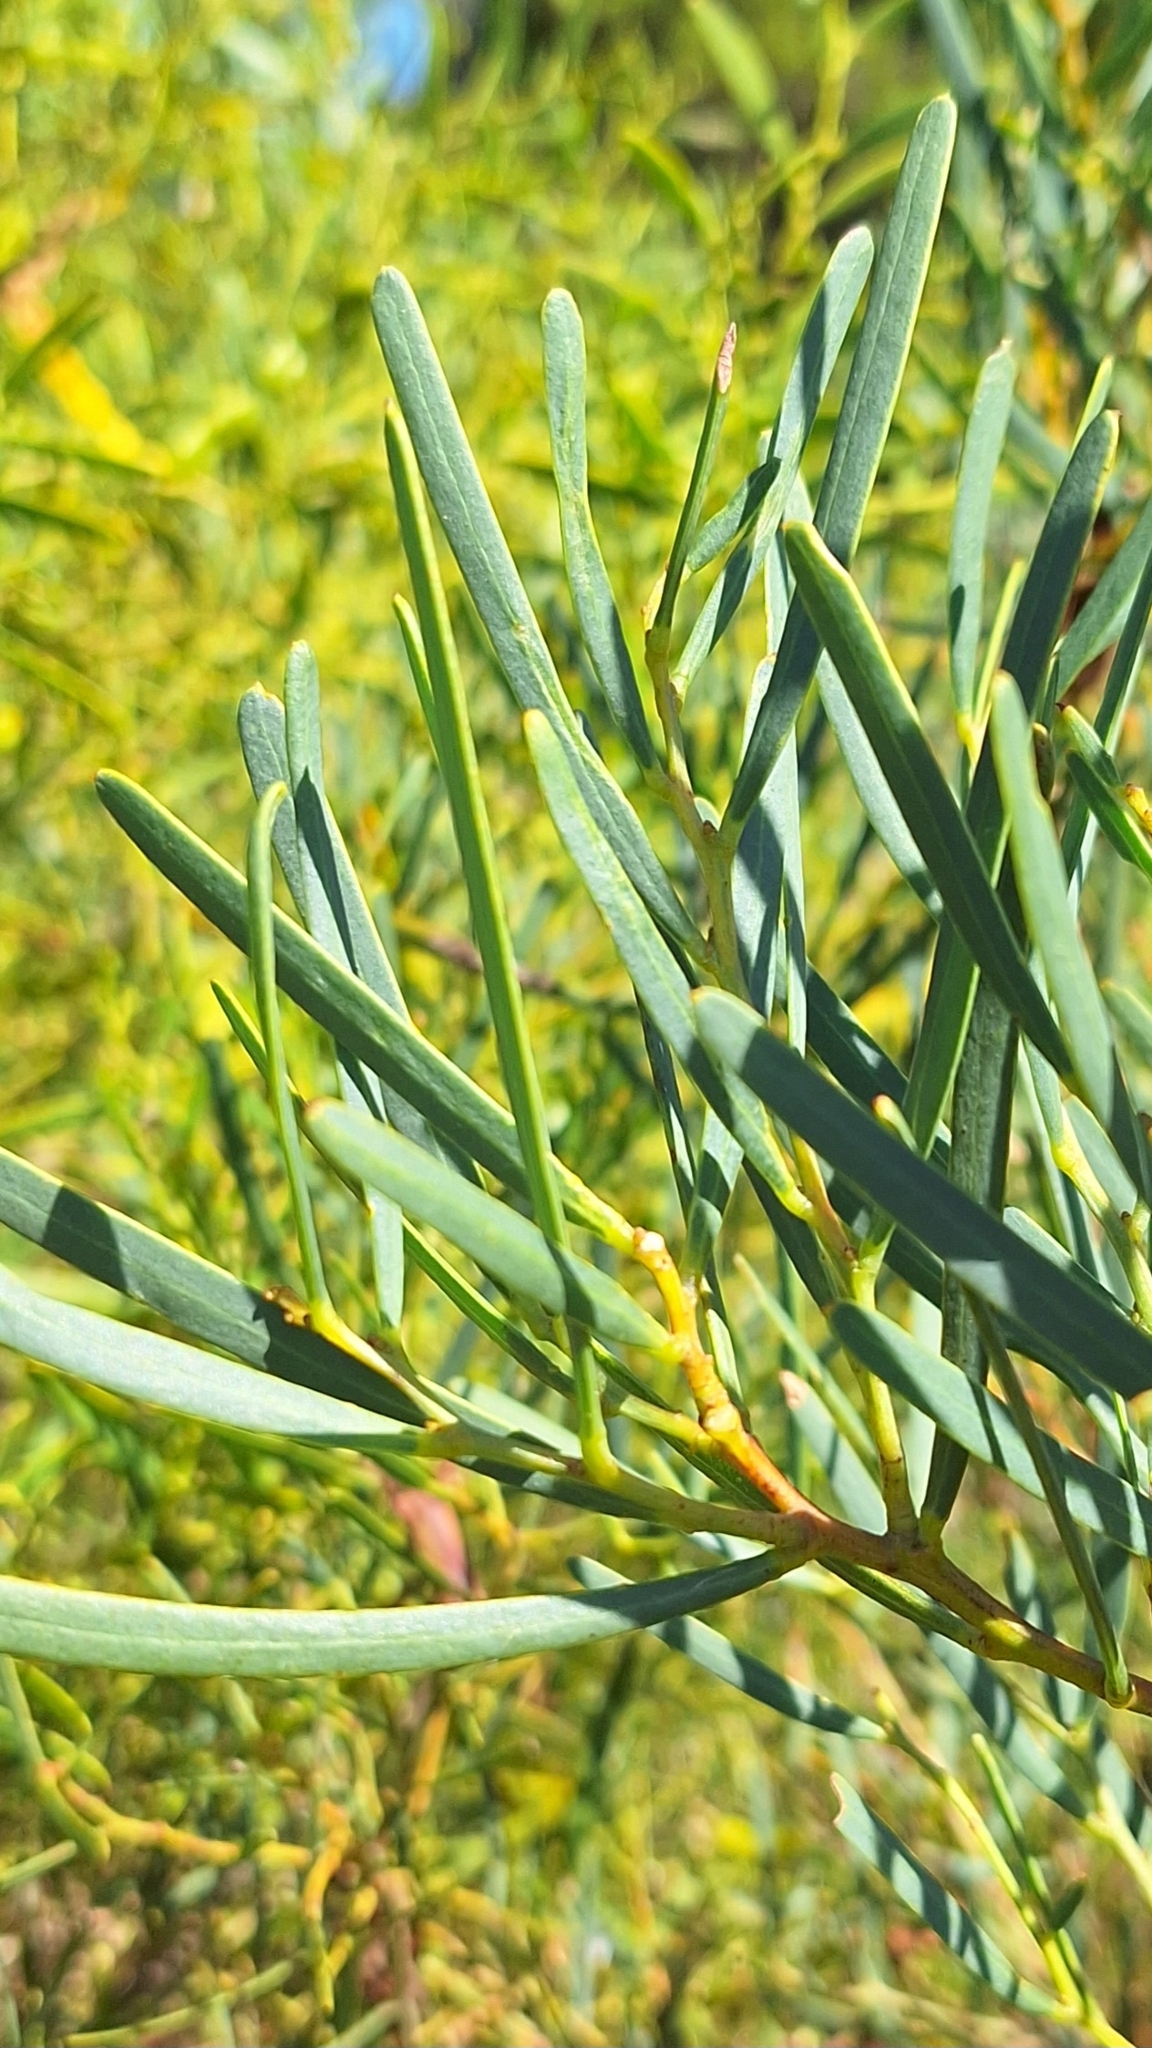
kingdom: Plantae
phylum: Tracheophyta
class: Magnoliopsida
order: Fabales
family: Fabaceae
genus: Acacia
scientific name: Acacia cupularis
